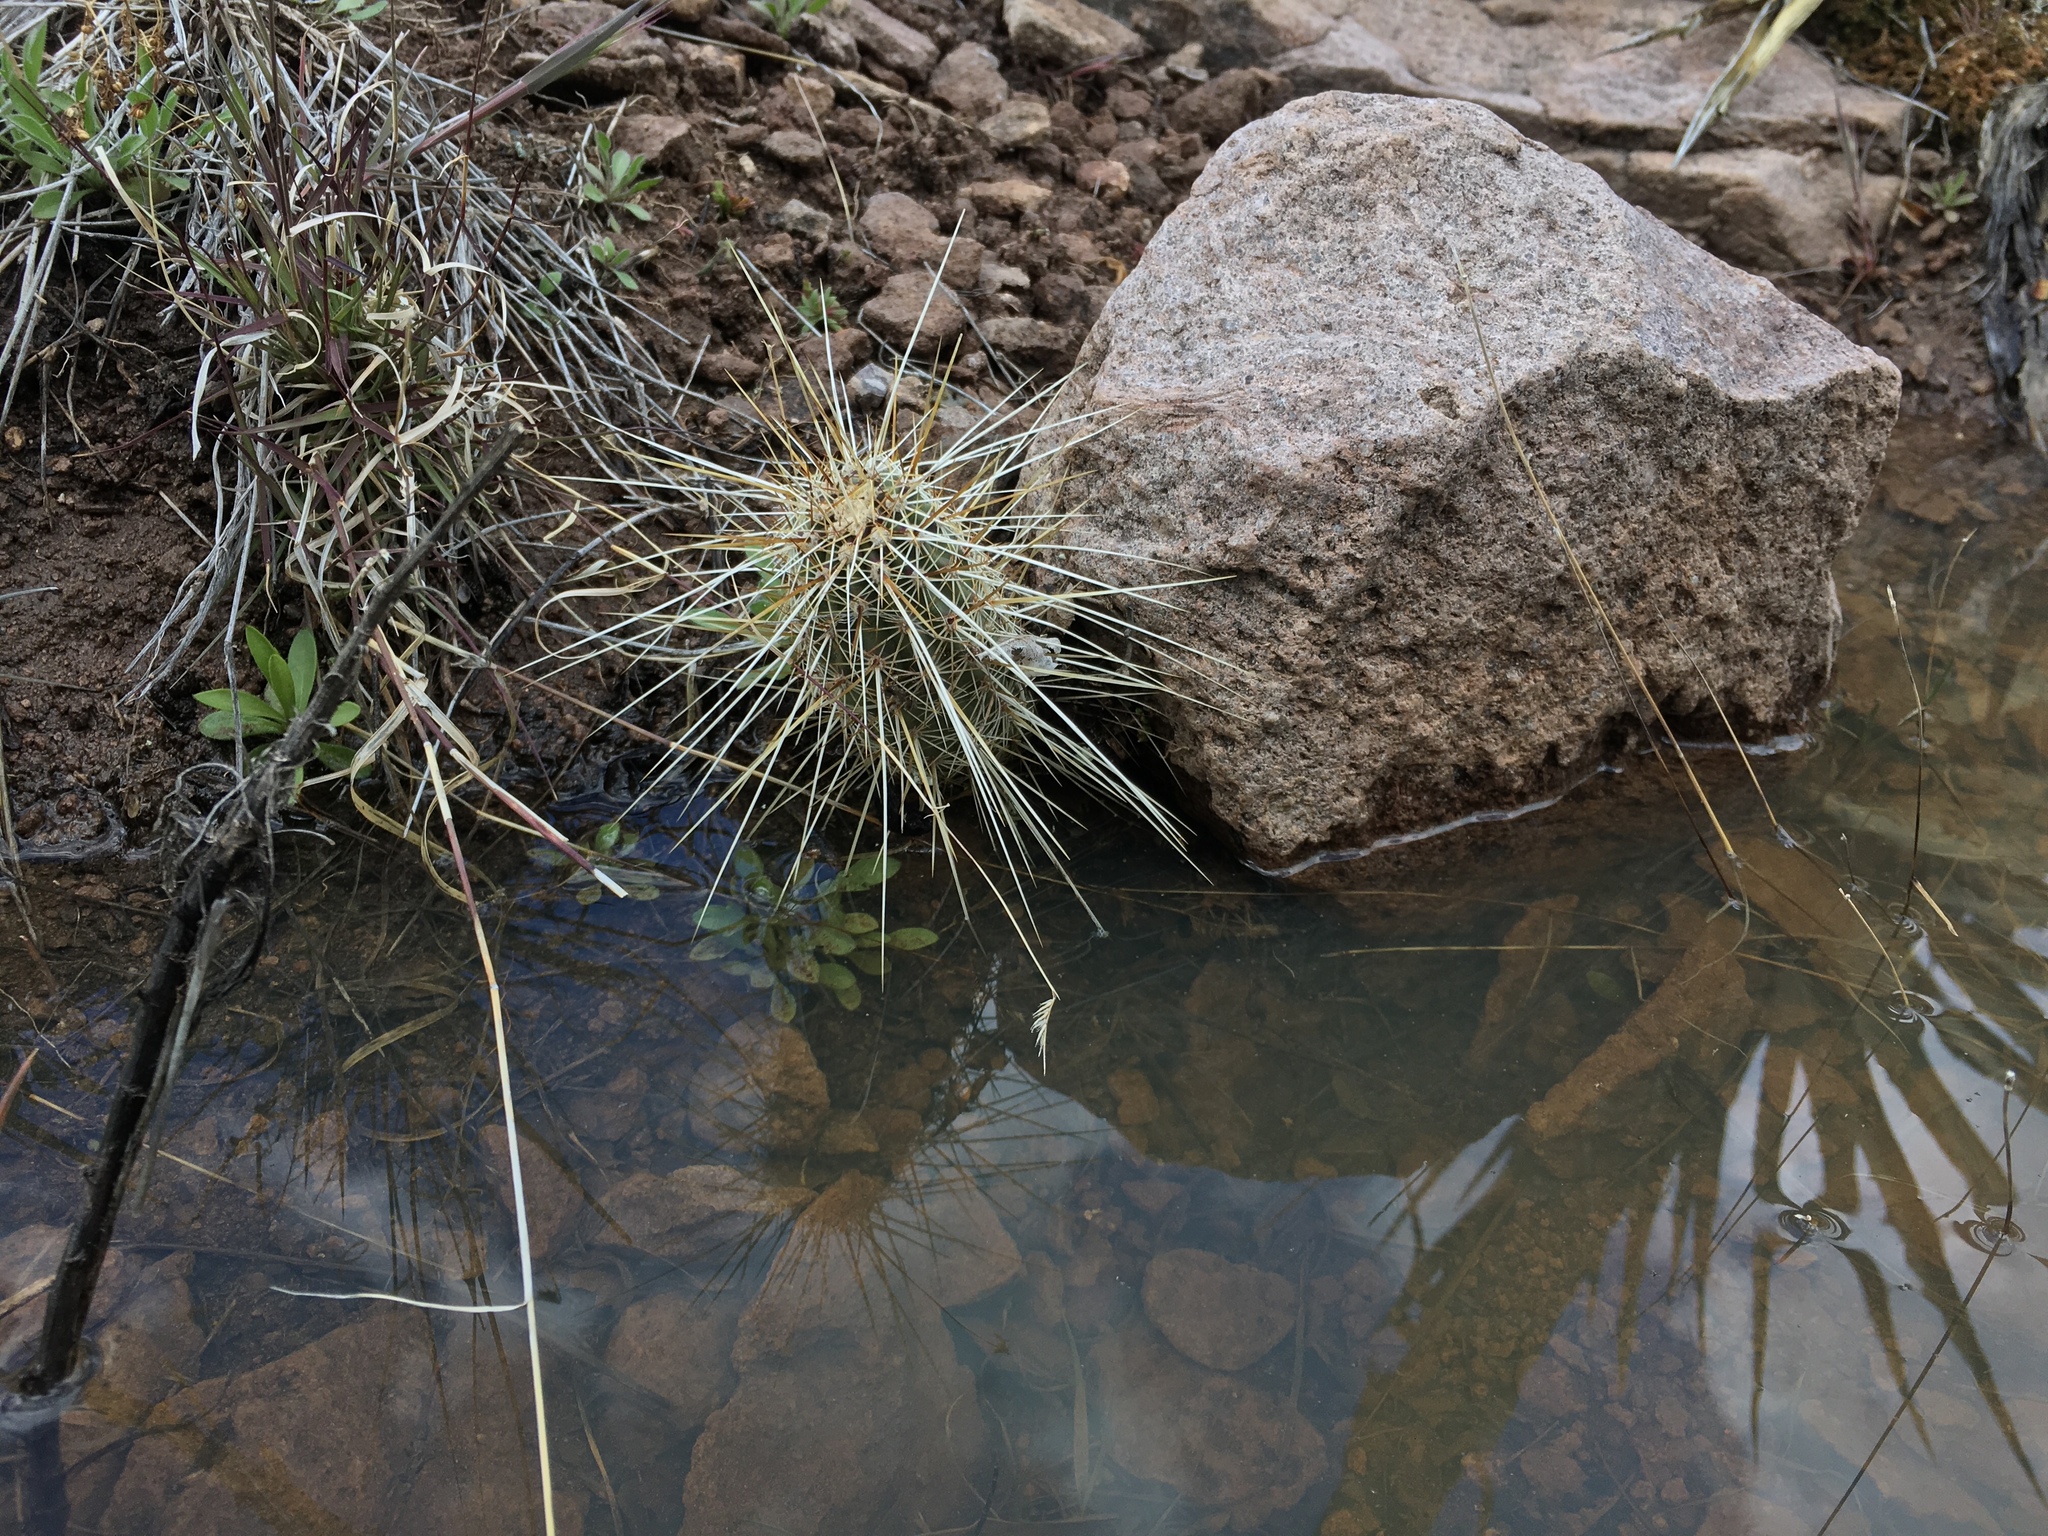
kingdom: Plantae
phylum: Tracheophyta
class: Magnoliopsida
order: Caryophyllales
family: Cactaceae
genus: Echinocereus
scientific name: Echinocereus fasciculatus
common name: Bundle hedgehog
